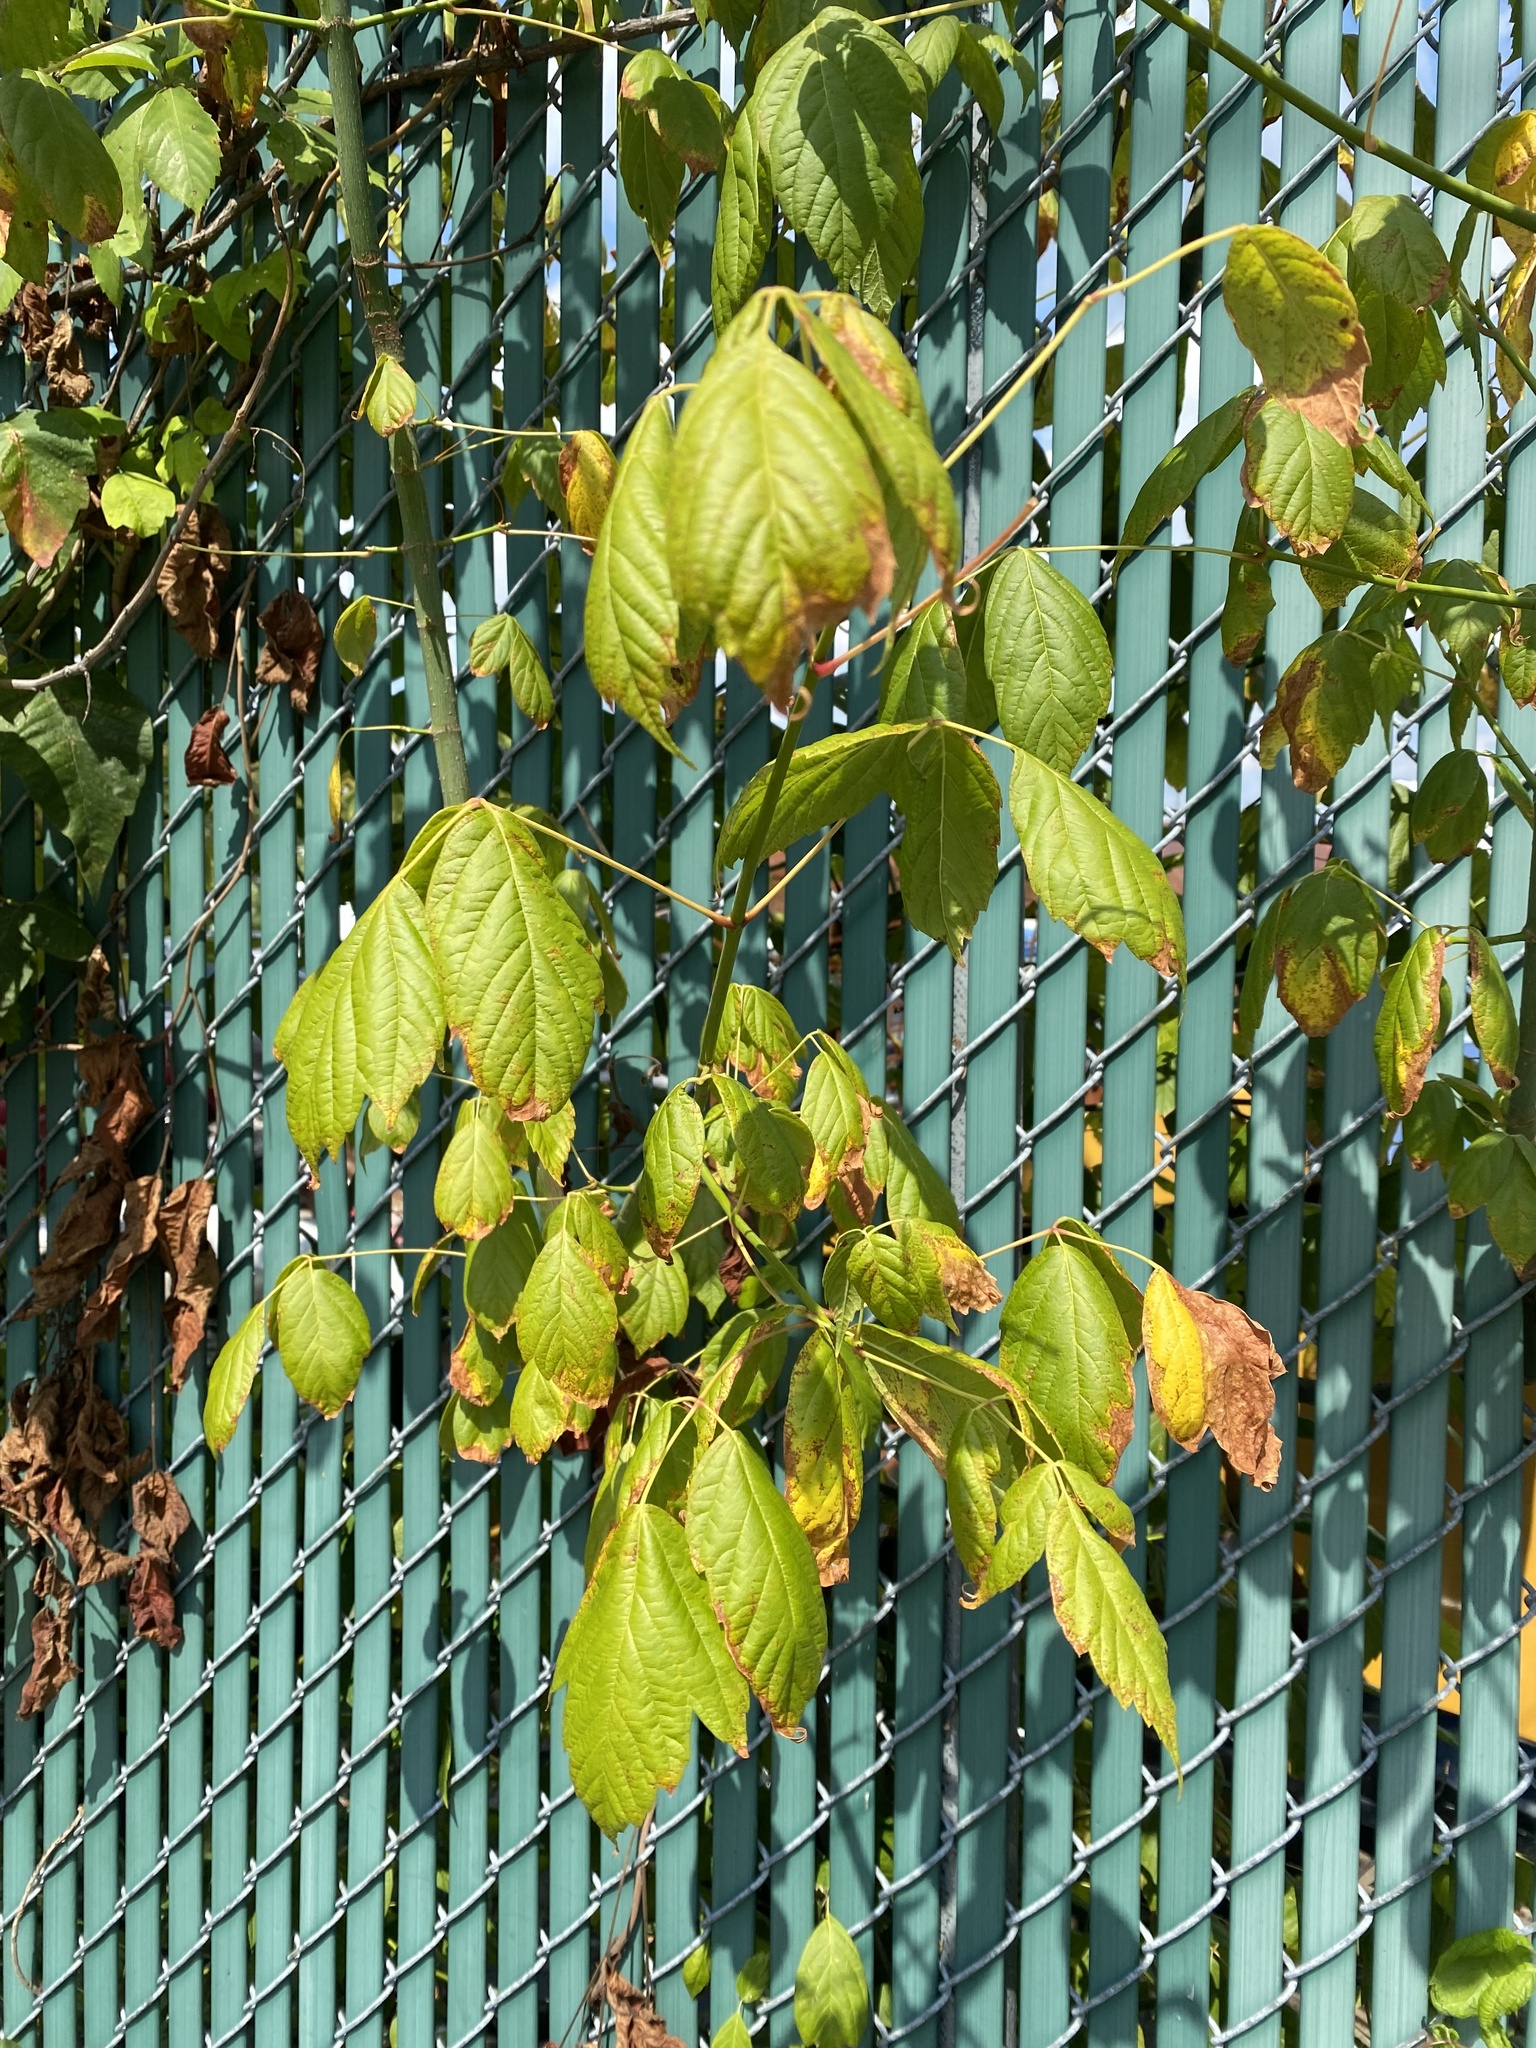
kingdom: Plantae
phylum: Tracheophyta
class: Magnoliopsida
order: Sapindales
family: Sapindaceae
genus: Acer
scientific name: Acer negundo
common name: Ashleaf maple
